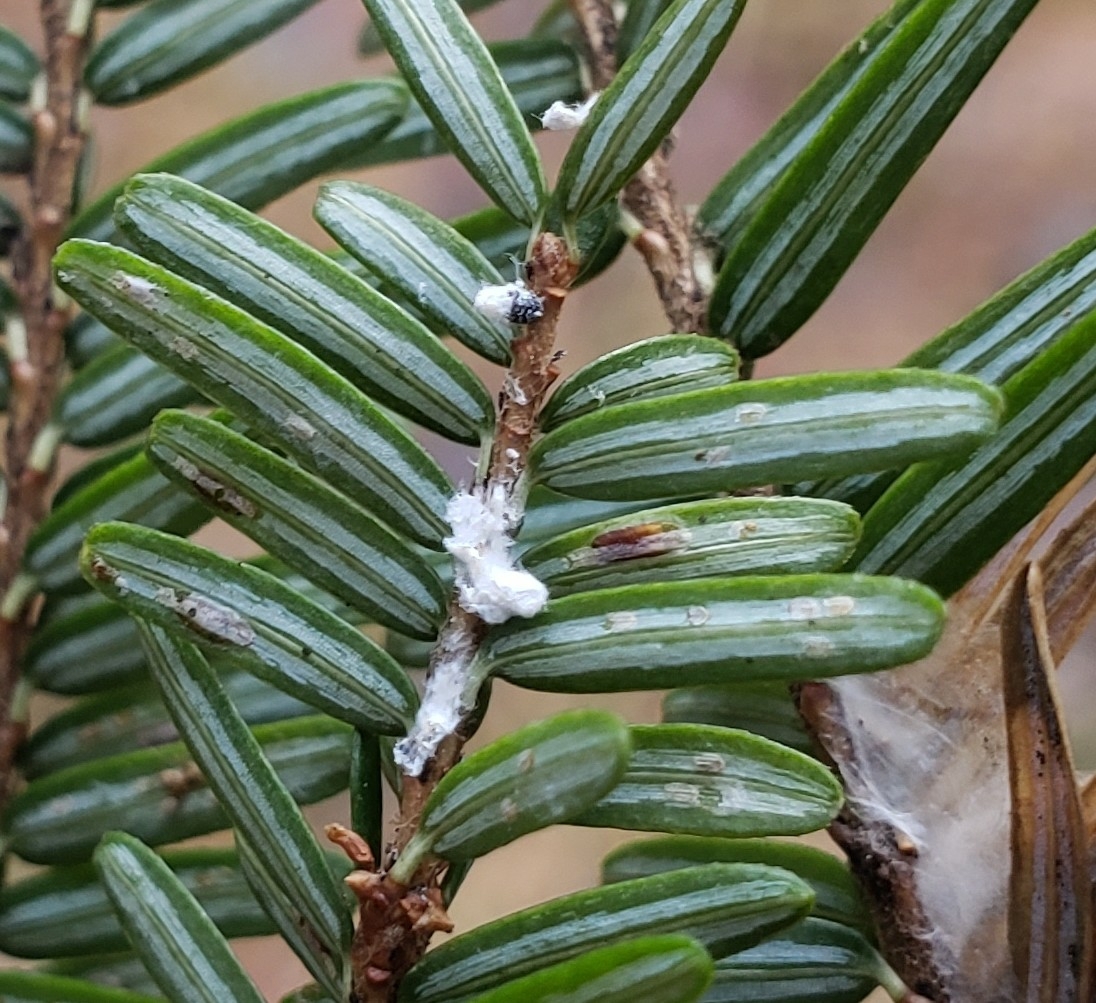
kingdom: Animalia
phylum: Arthropoda
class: Insecta
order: Hemiptera
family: Adelgidae
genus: Adelges
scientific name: Adelges tsugae
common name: Hemlock woolly adelgid
